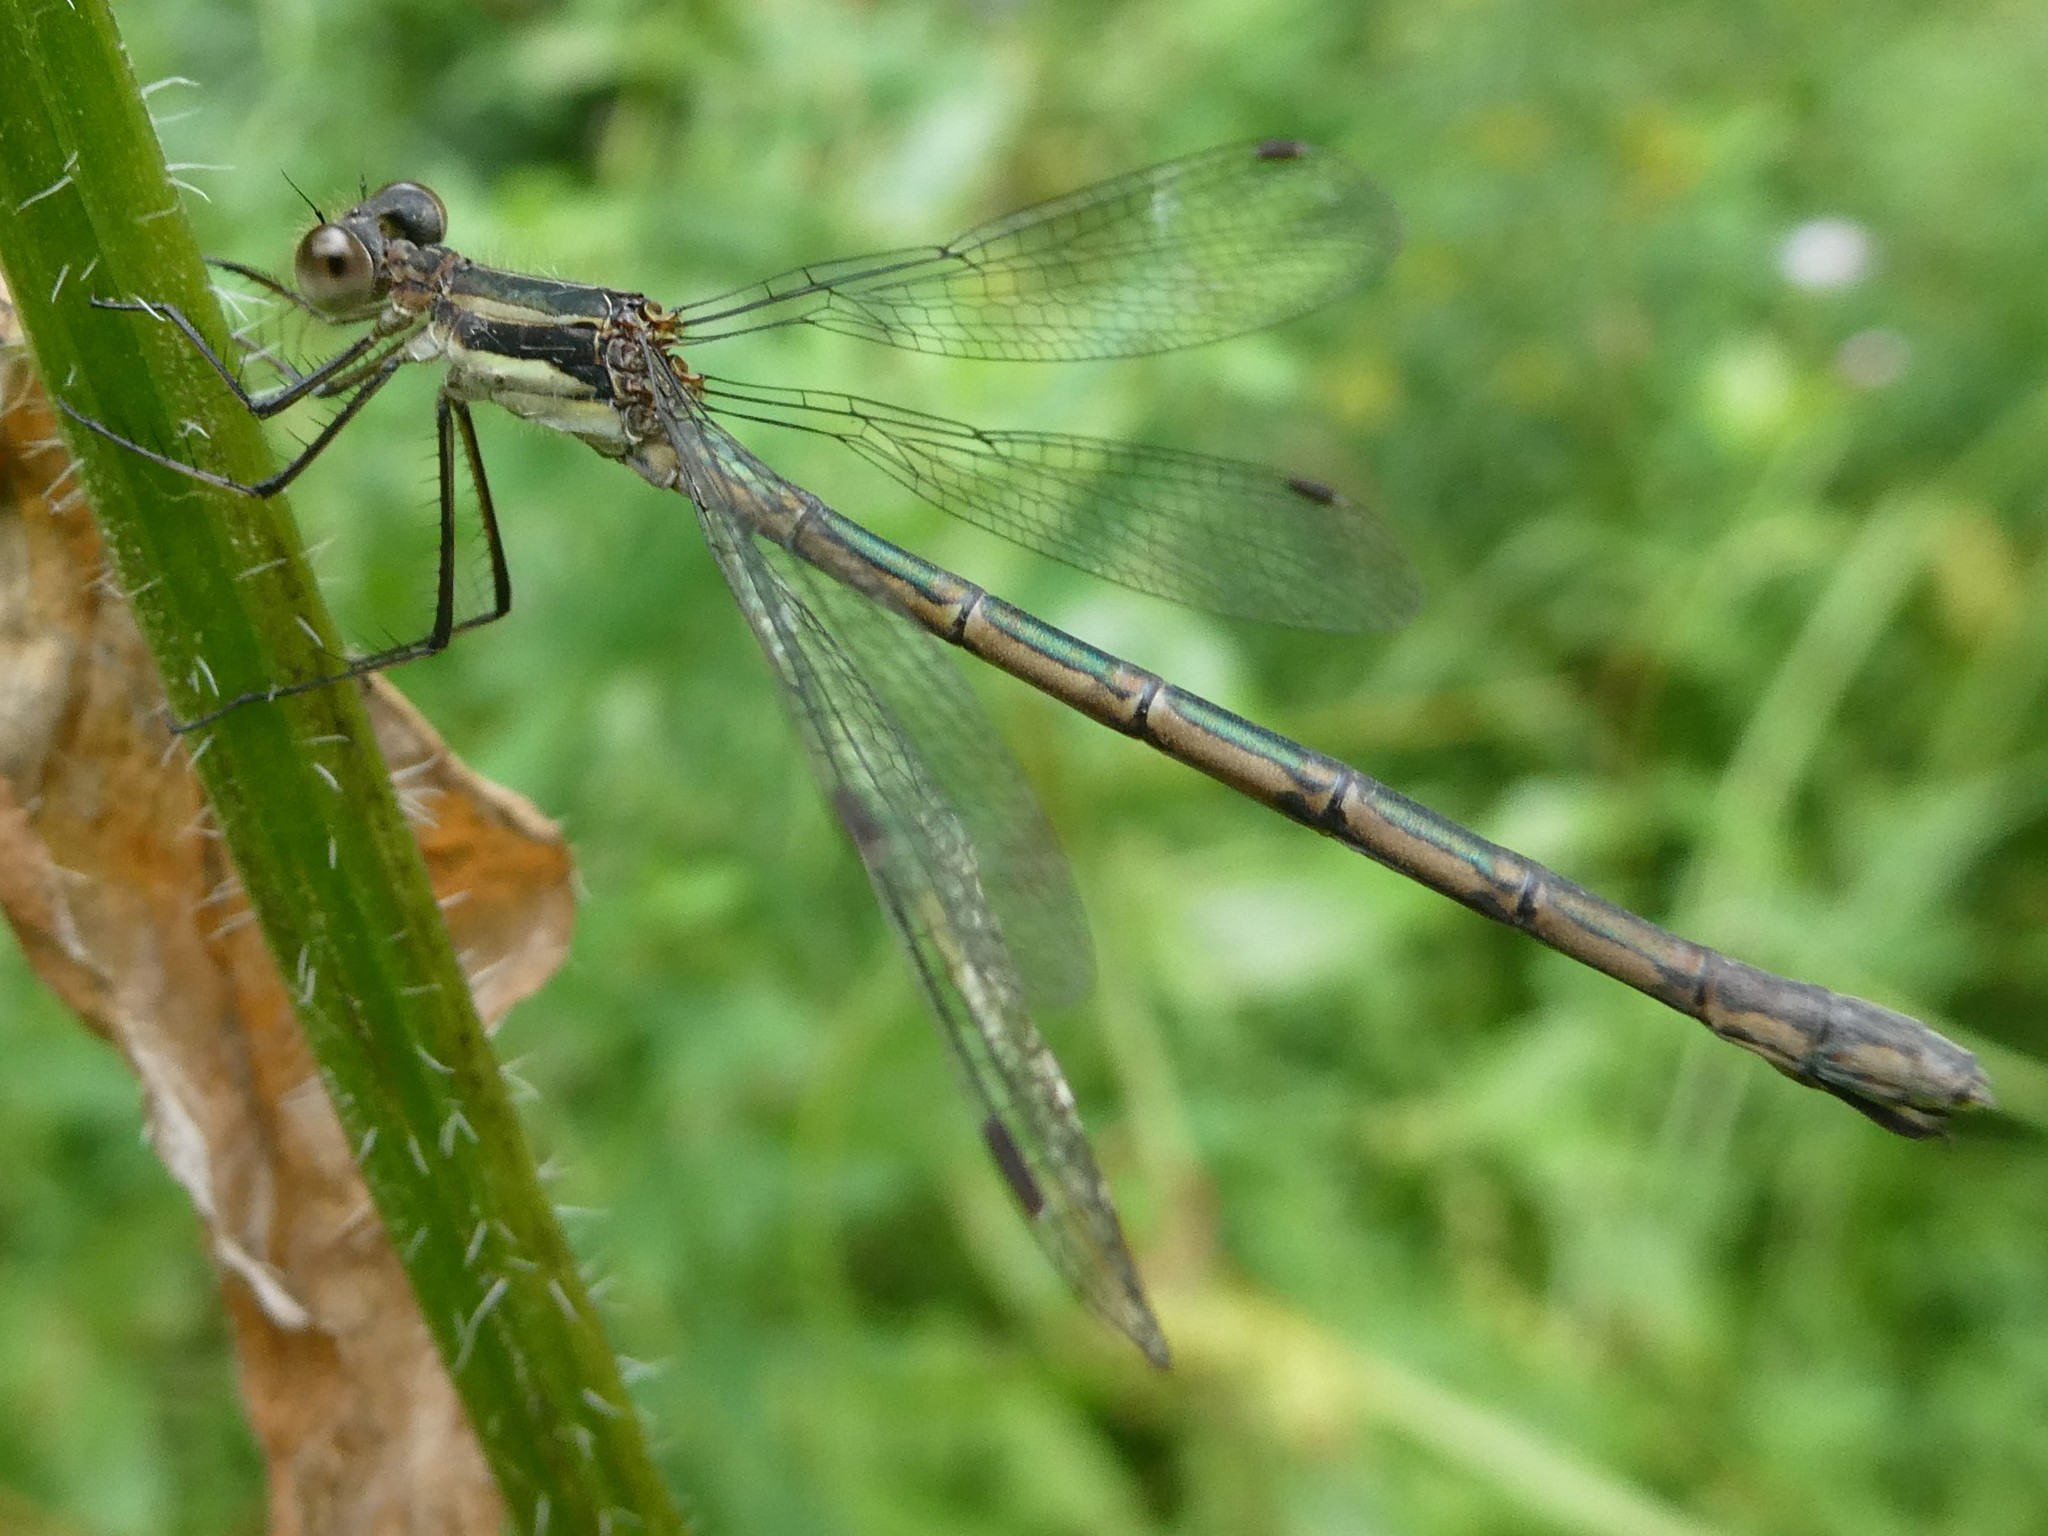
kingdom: Animalia
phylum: Arthropoda
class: Insecta
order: Odonata
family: Lestidae
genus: Lestes
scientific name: Lestes
